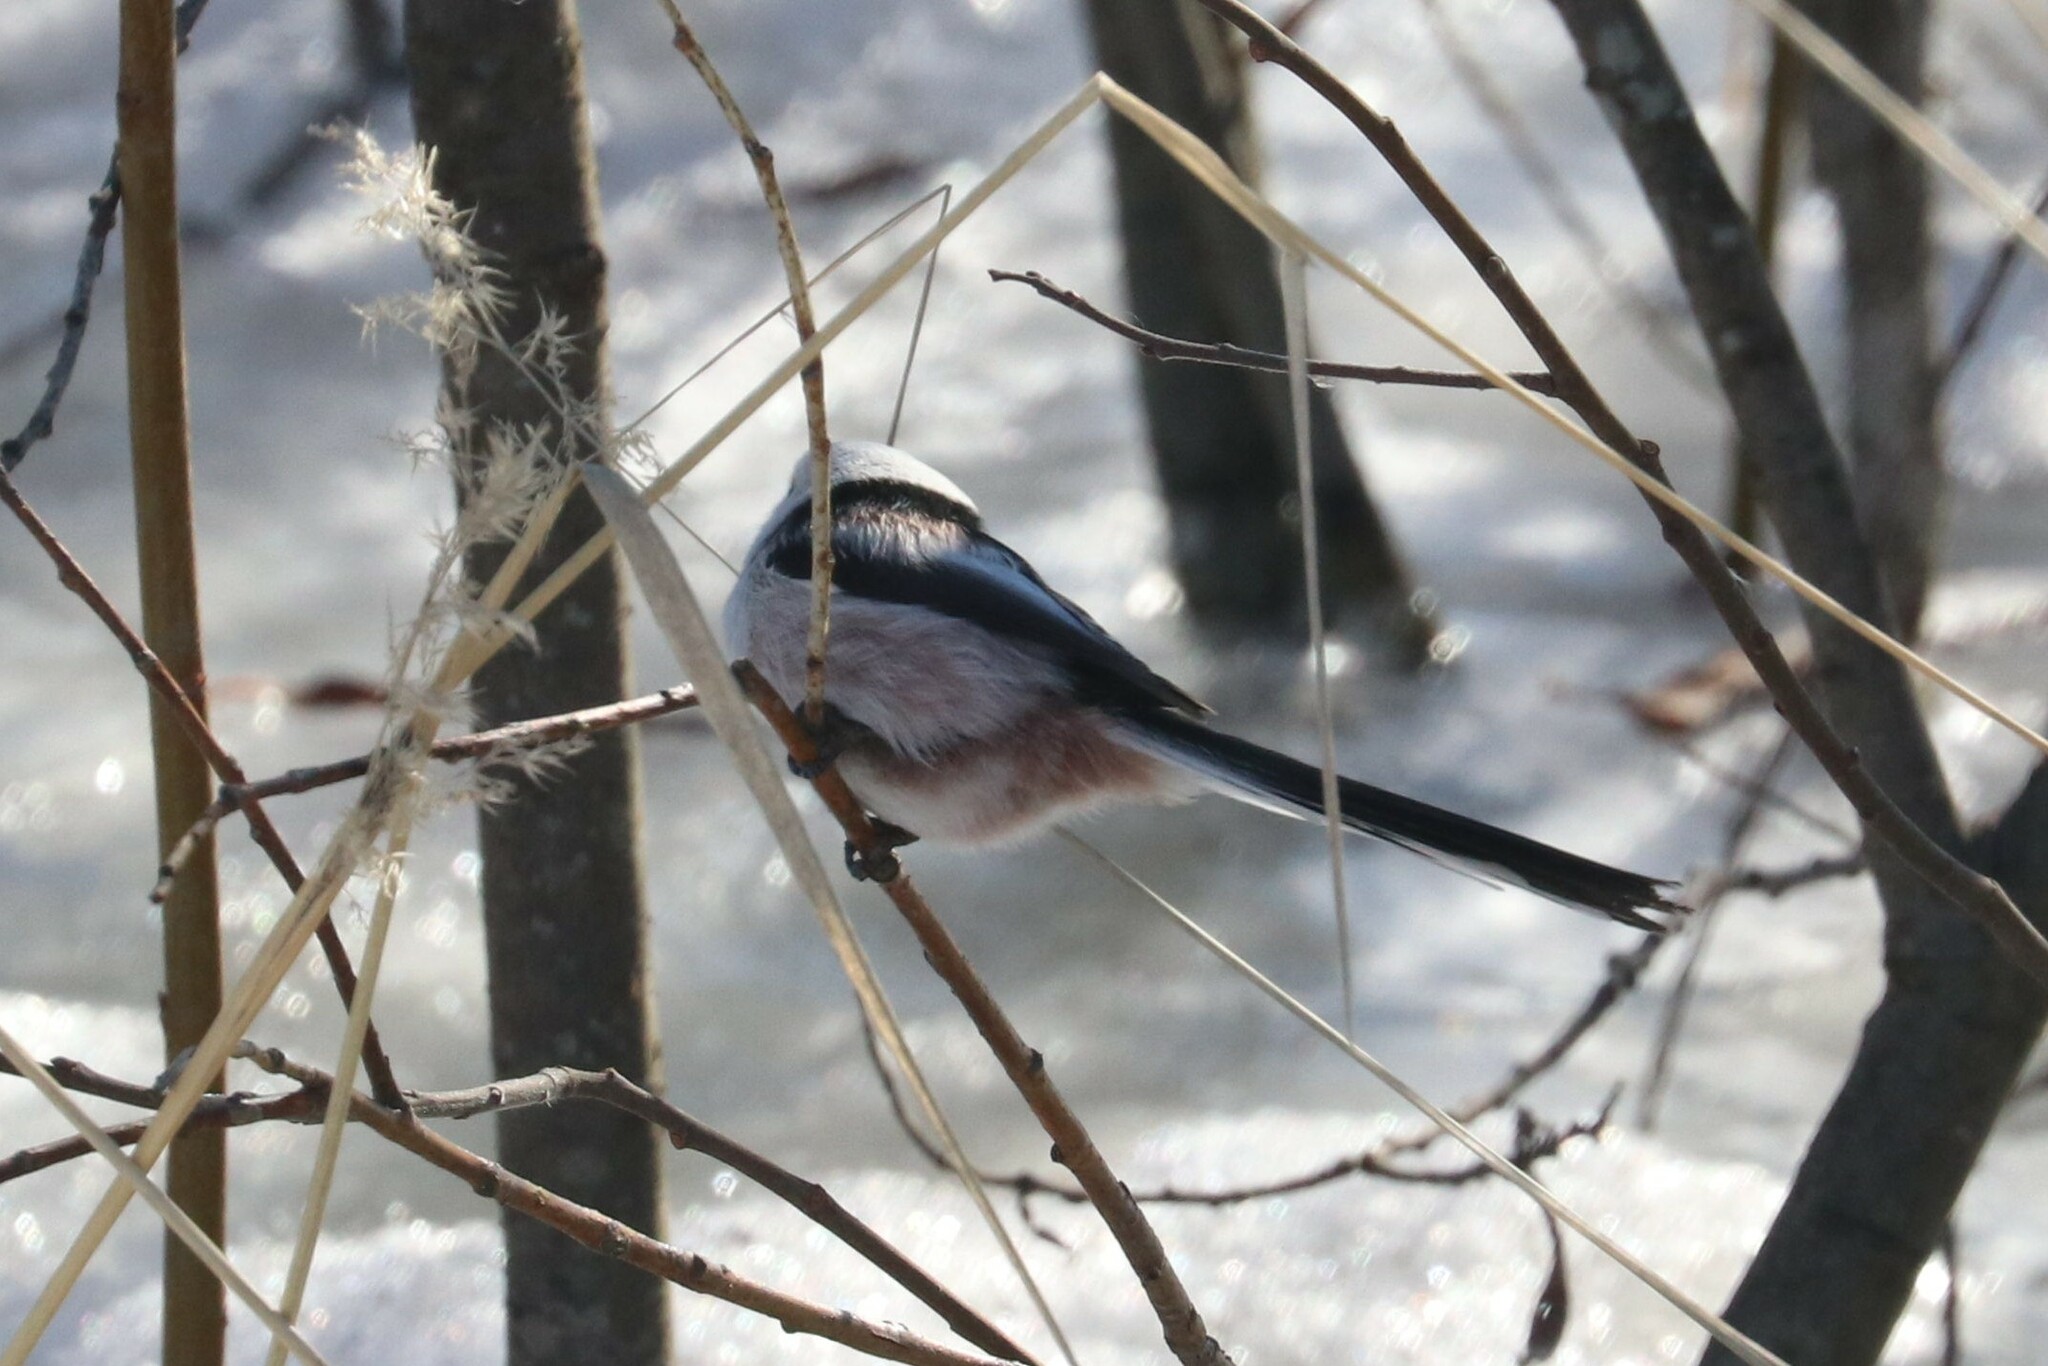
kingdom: Animalia
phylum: Chordata
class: Aves
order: Passeriformes
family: Aegithalidae
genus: Aegithalos
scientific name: Aegithalos caudatus
